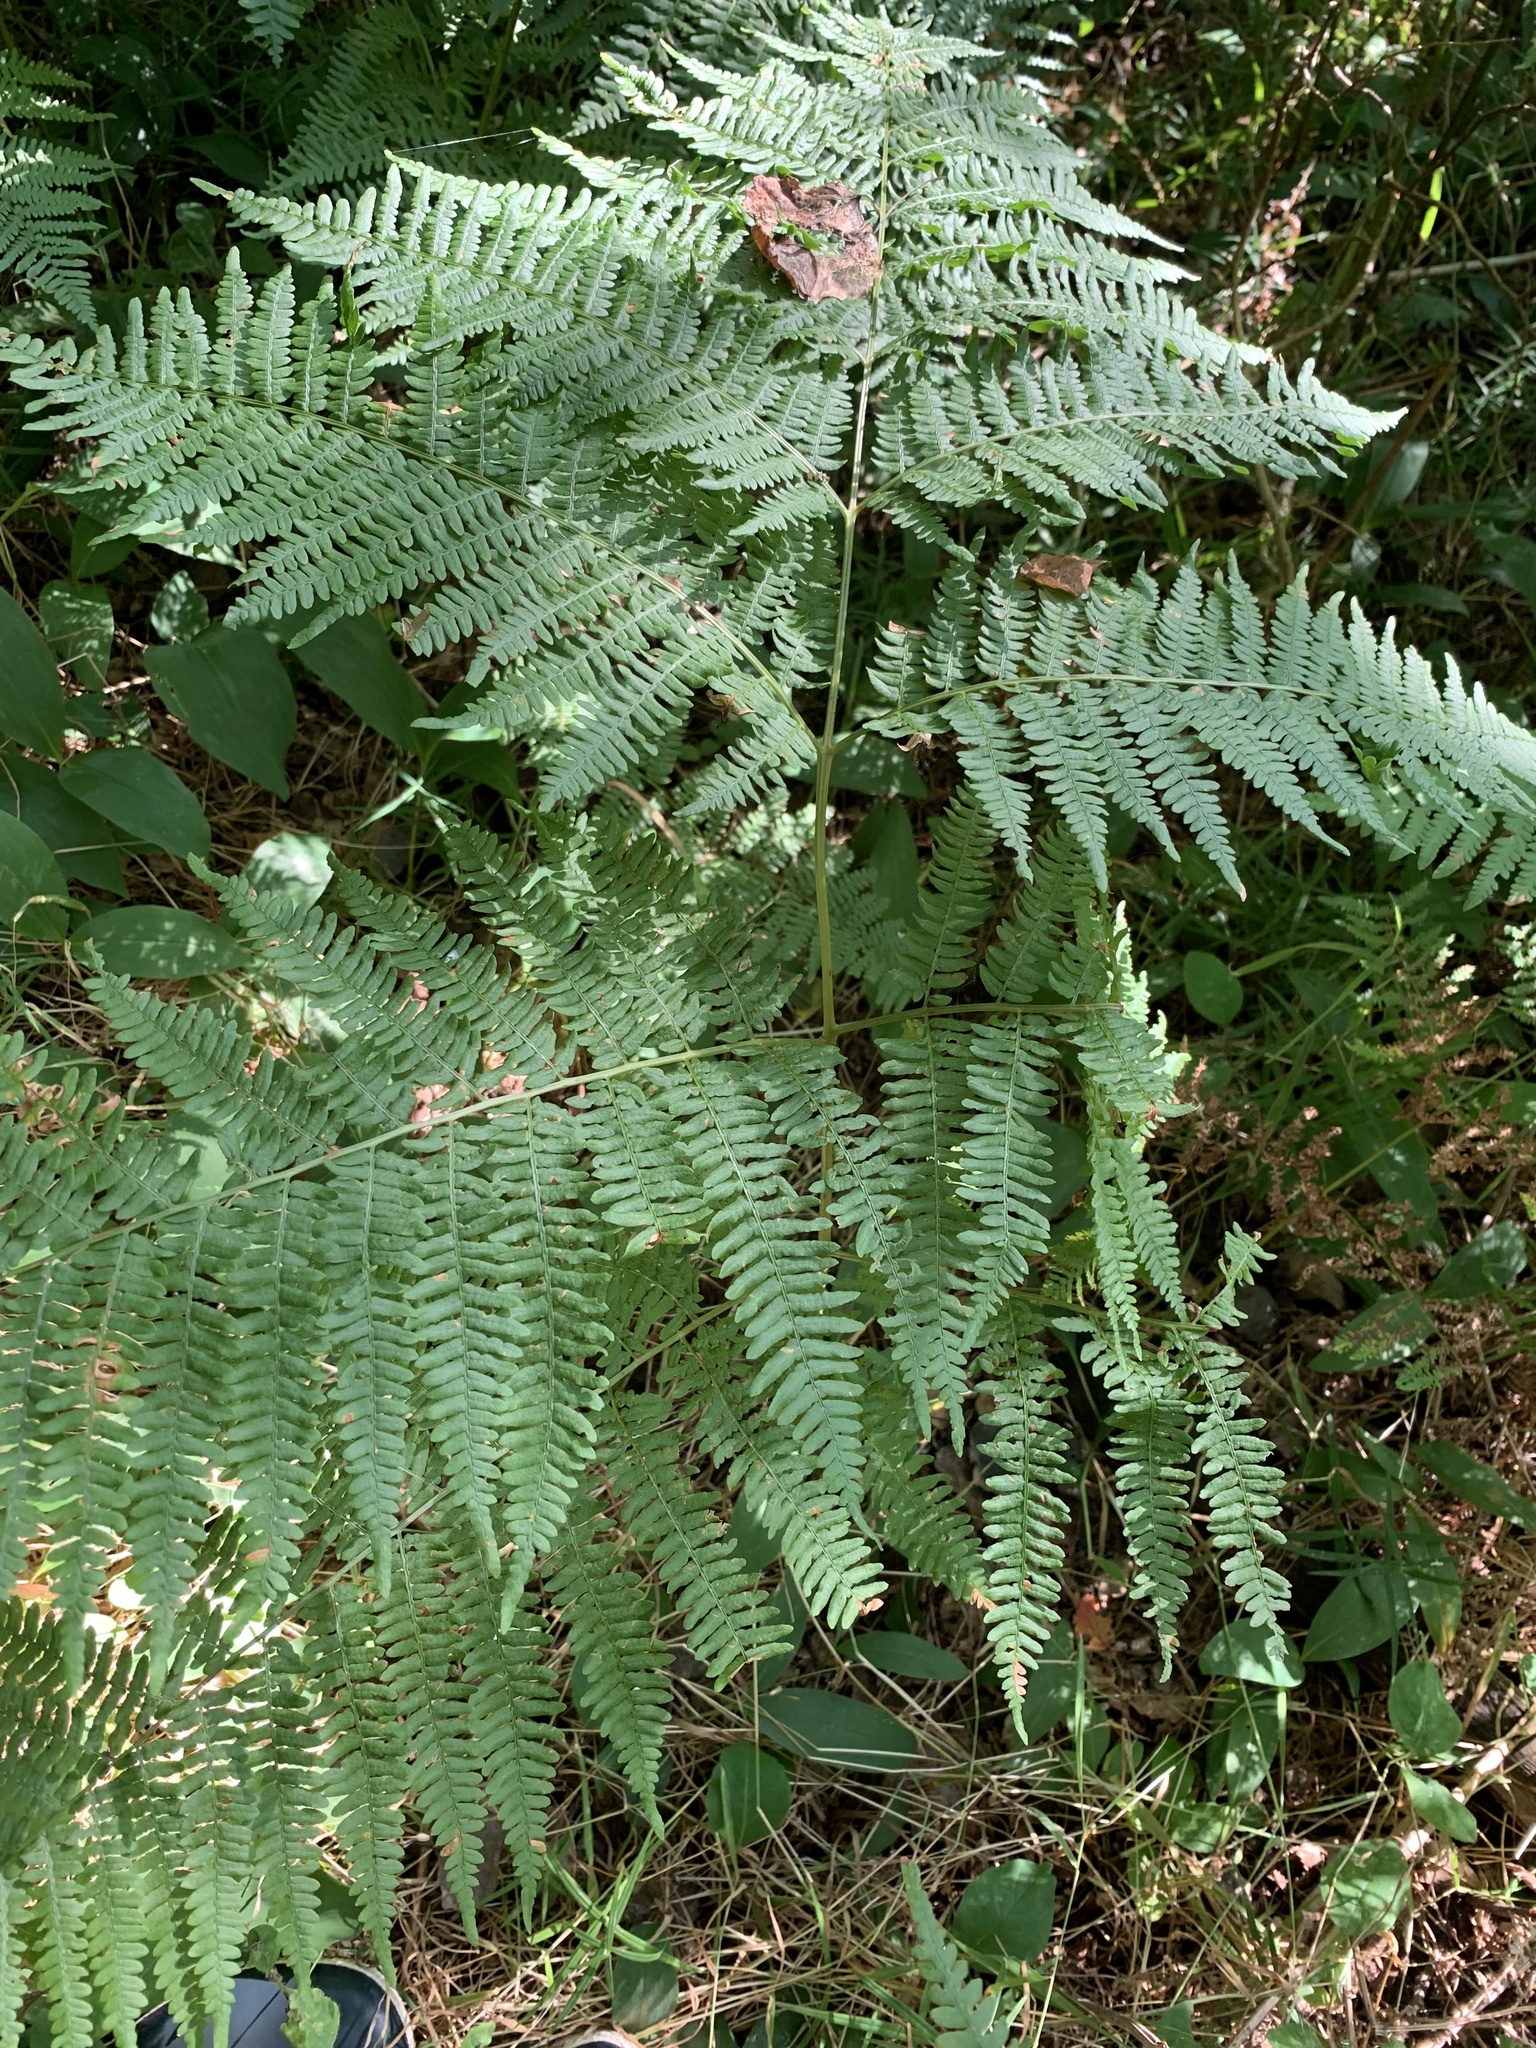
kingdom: Plantae
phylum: Tracheophyta
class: Polypodiopsida
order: Polypodiales
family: Dennstaedtiaceae
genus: Pteridium
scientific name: Pteridium aquilinum
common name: Bracken
